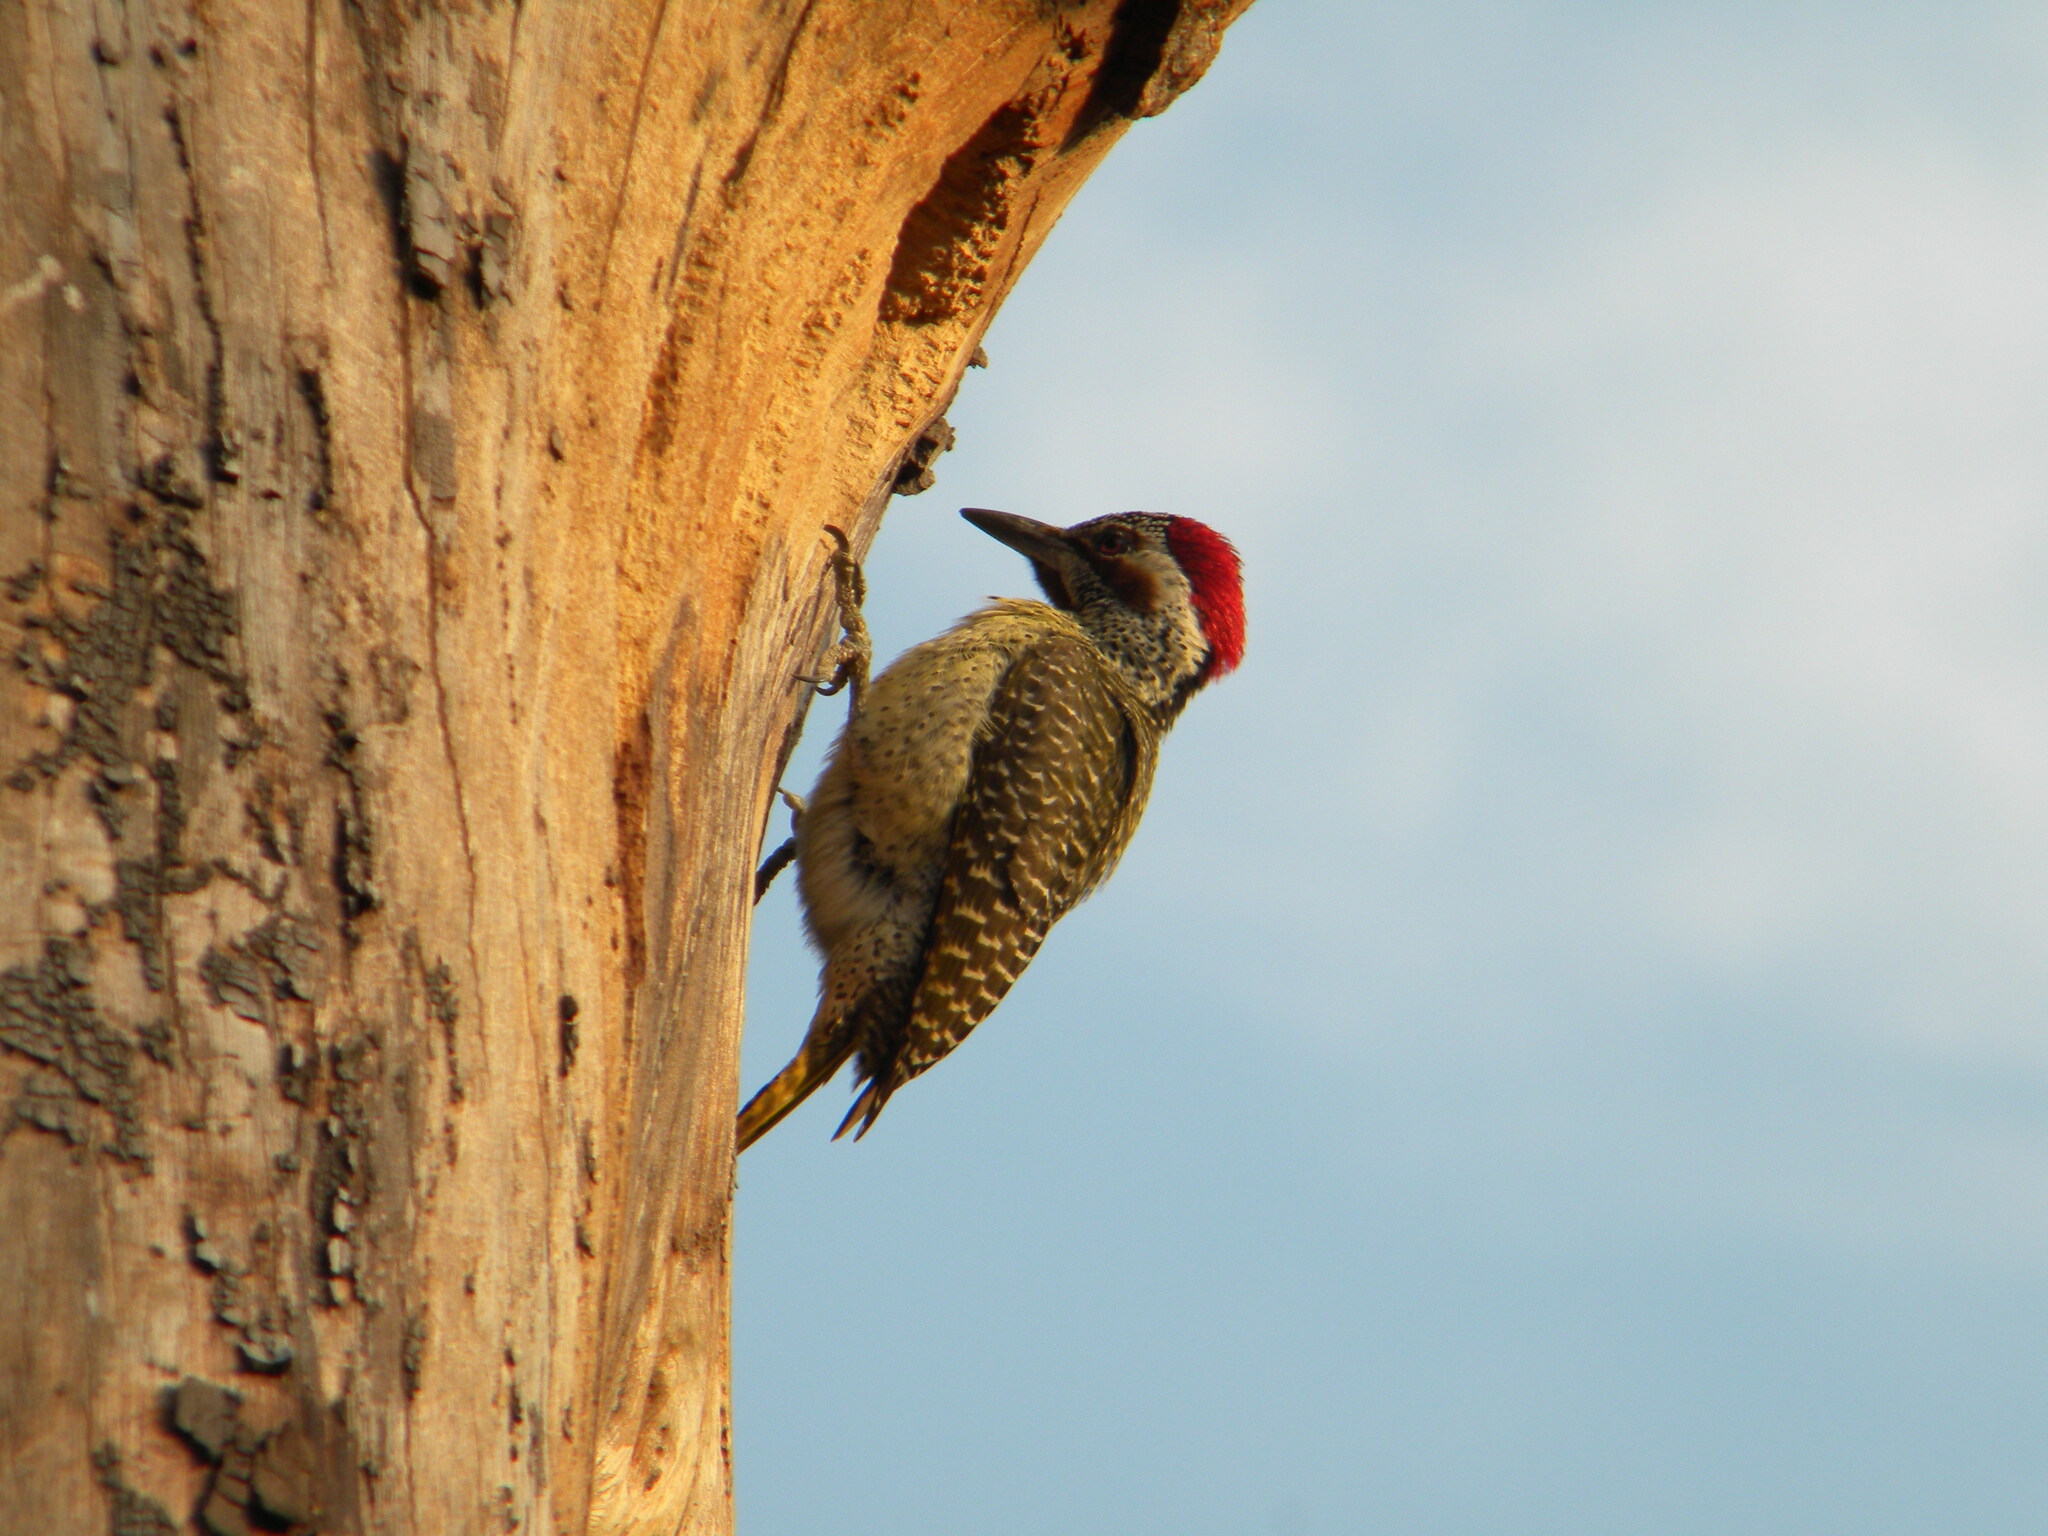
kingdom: Animalia
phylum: Chordata
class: Aves
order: Piciformes
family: Picidae
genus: Campethera
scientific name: Campethera bennettii
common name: Bennett's woodpecker
